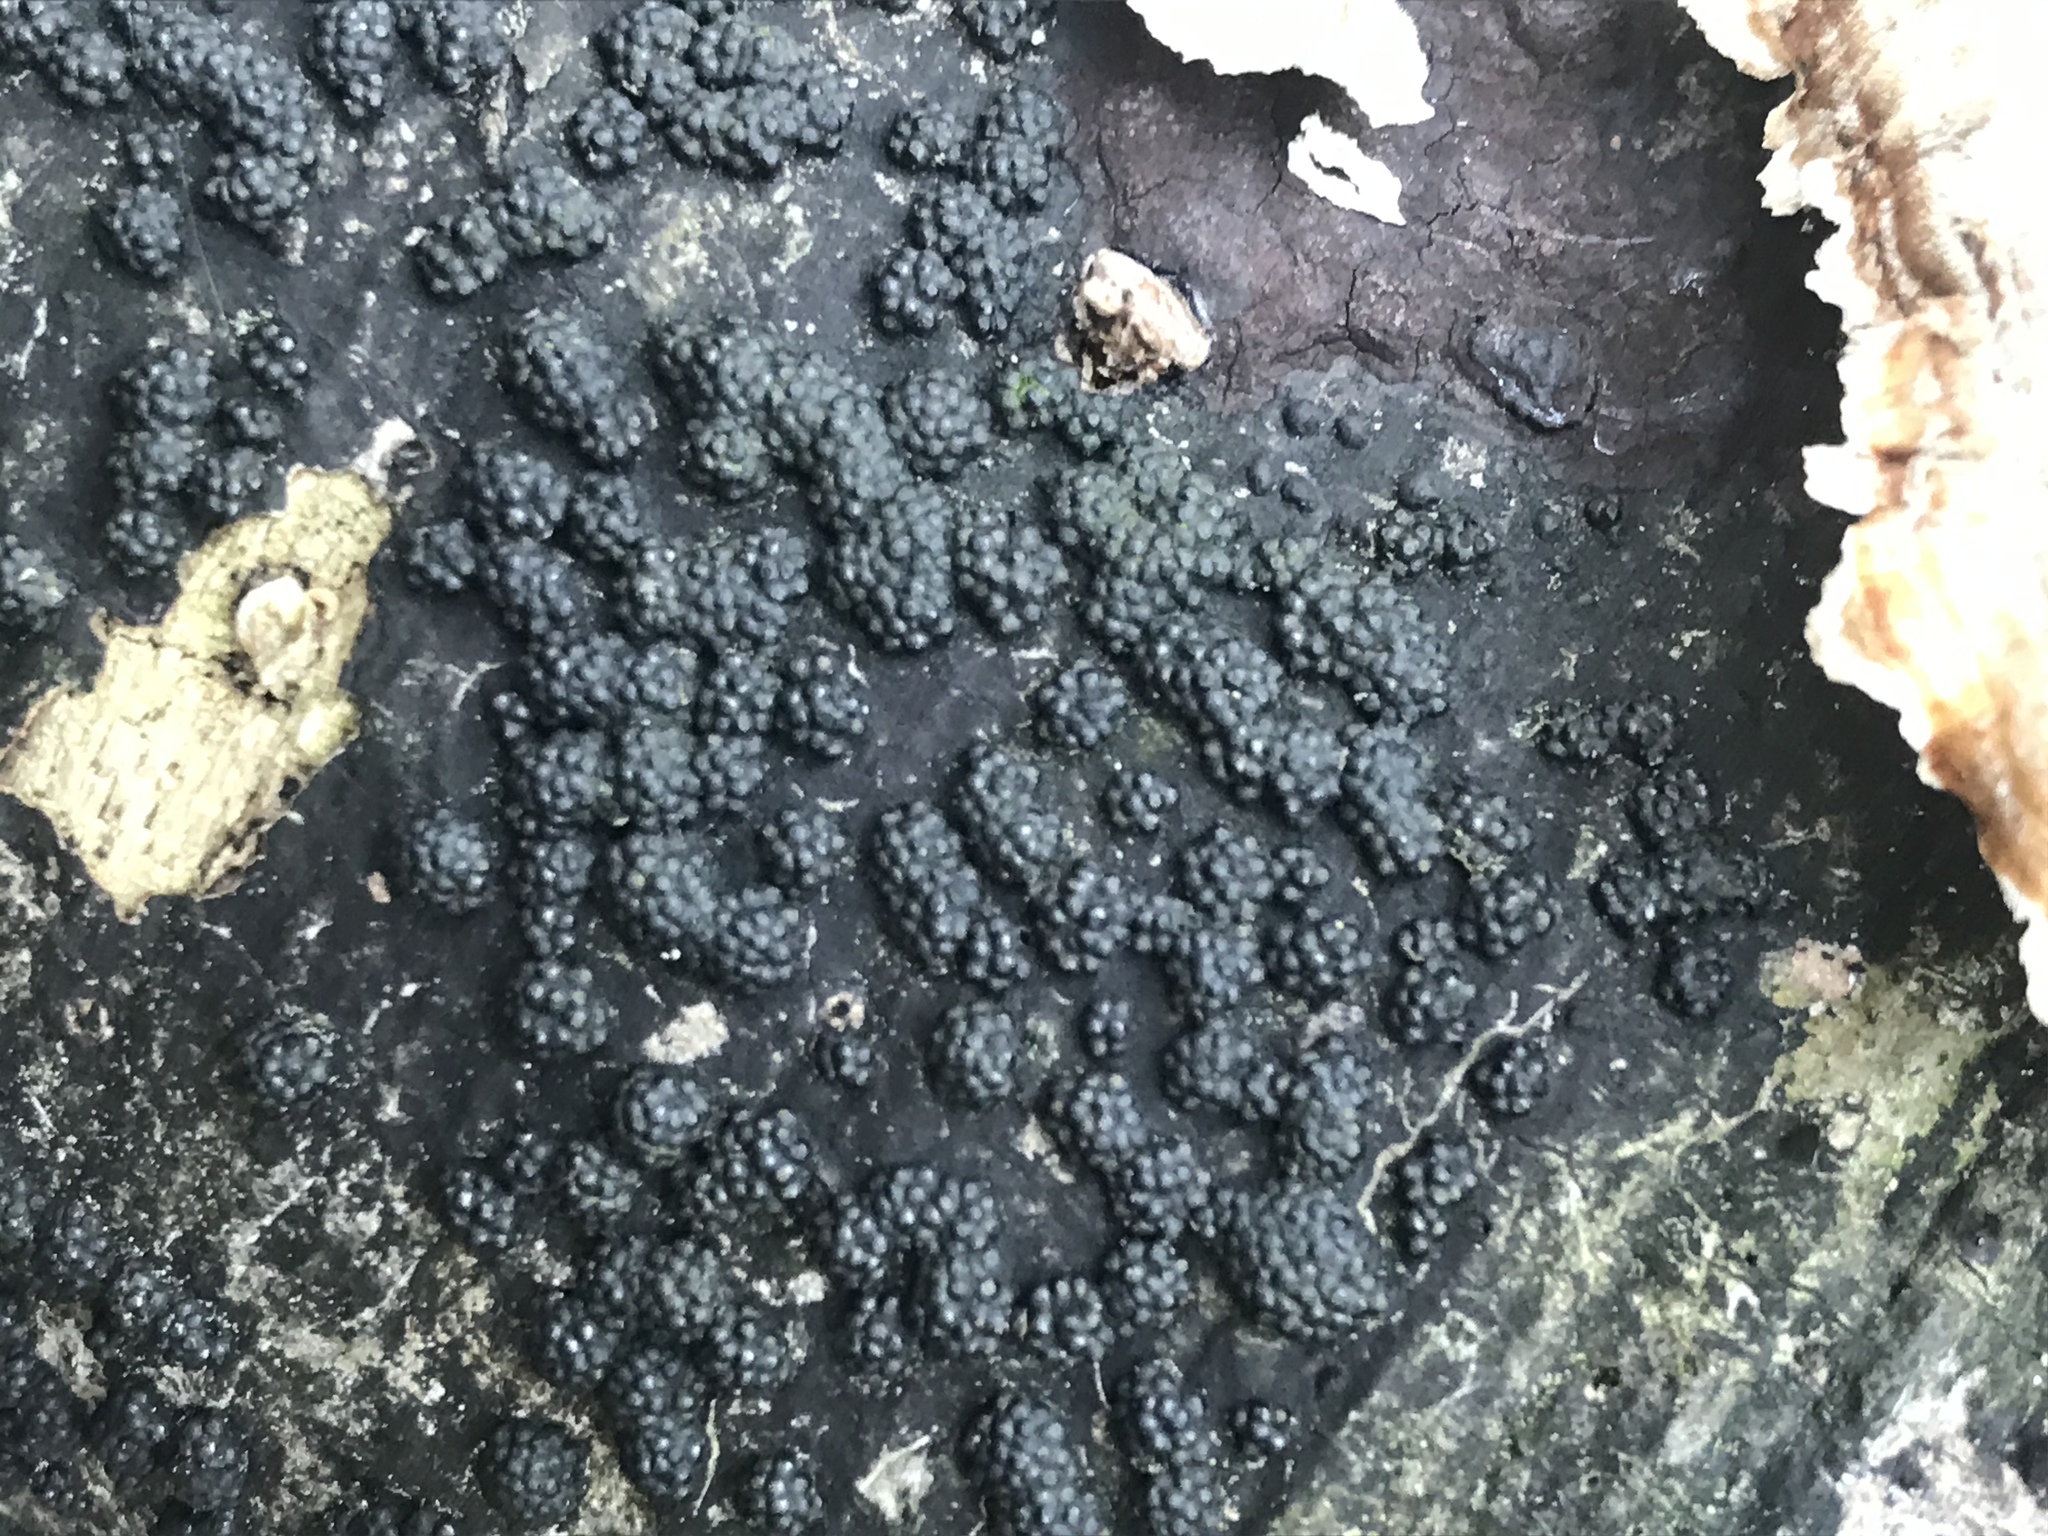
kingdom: Fungi
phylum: Ascomycota
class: Sordariomycetes
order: Xylariales
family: Hypoxylaceae
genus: Annulohypoxylon
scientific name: Annulohypoxylon thouarsianum
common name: Cramp balls
